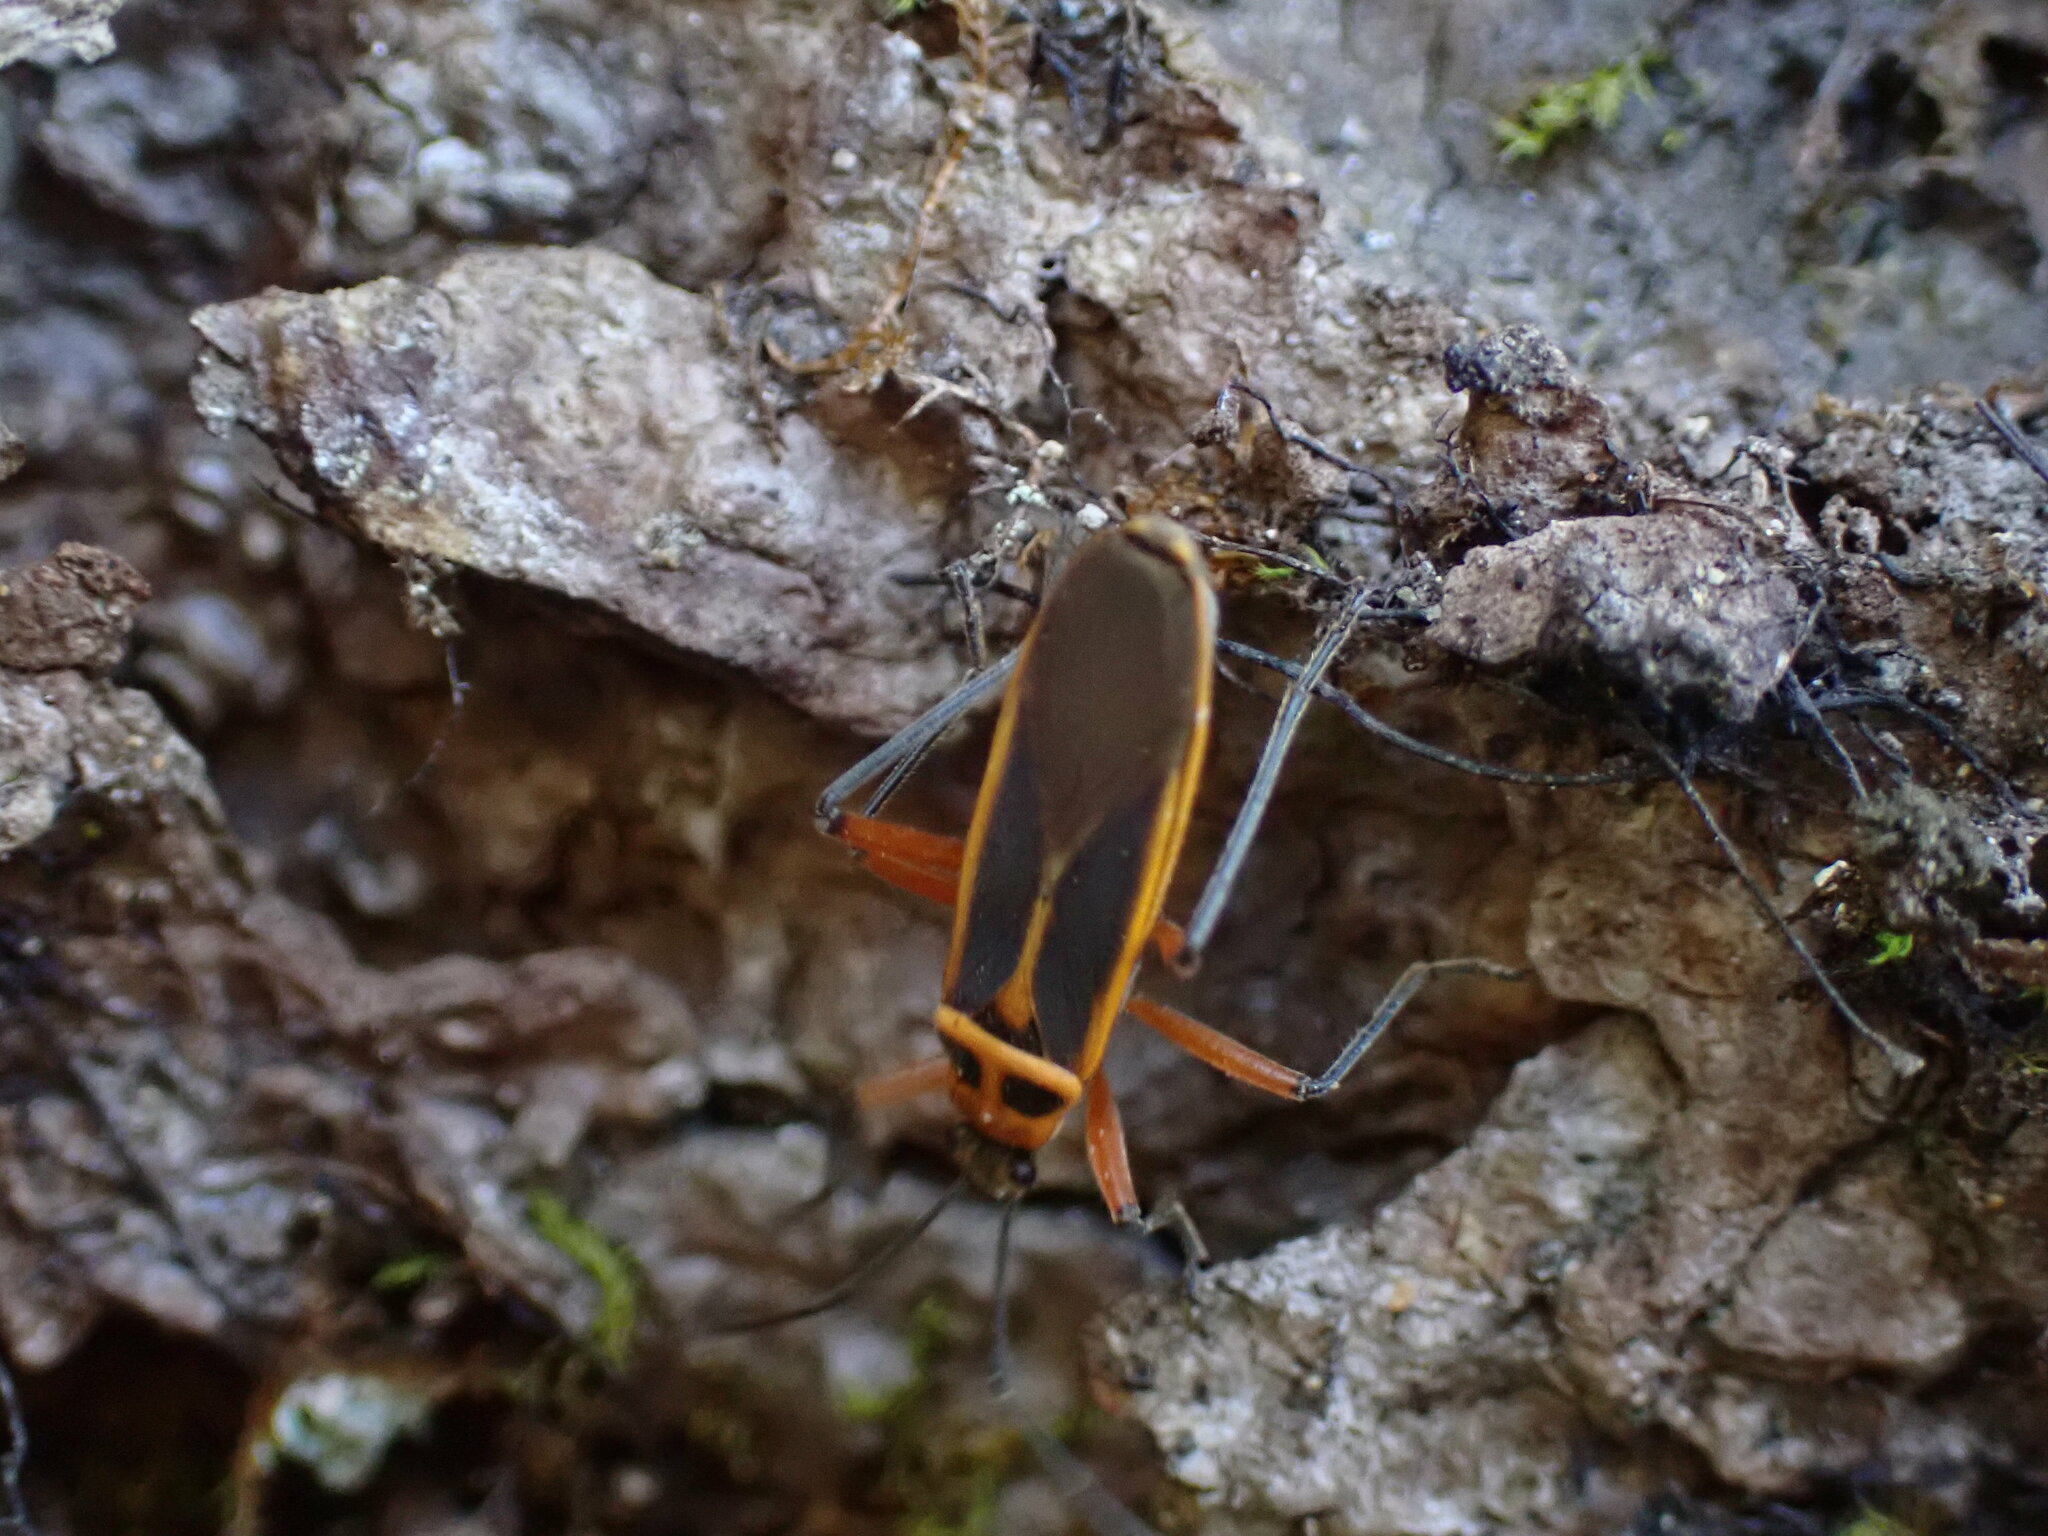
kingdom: Animalia
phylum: Arthropoda
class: Insecta
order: Hemiptera
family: Largidae
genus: Stenomacra
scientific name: Stenomacra marginella
